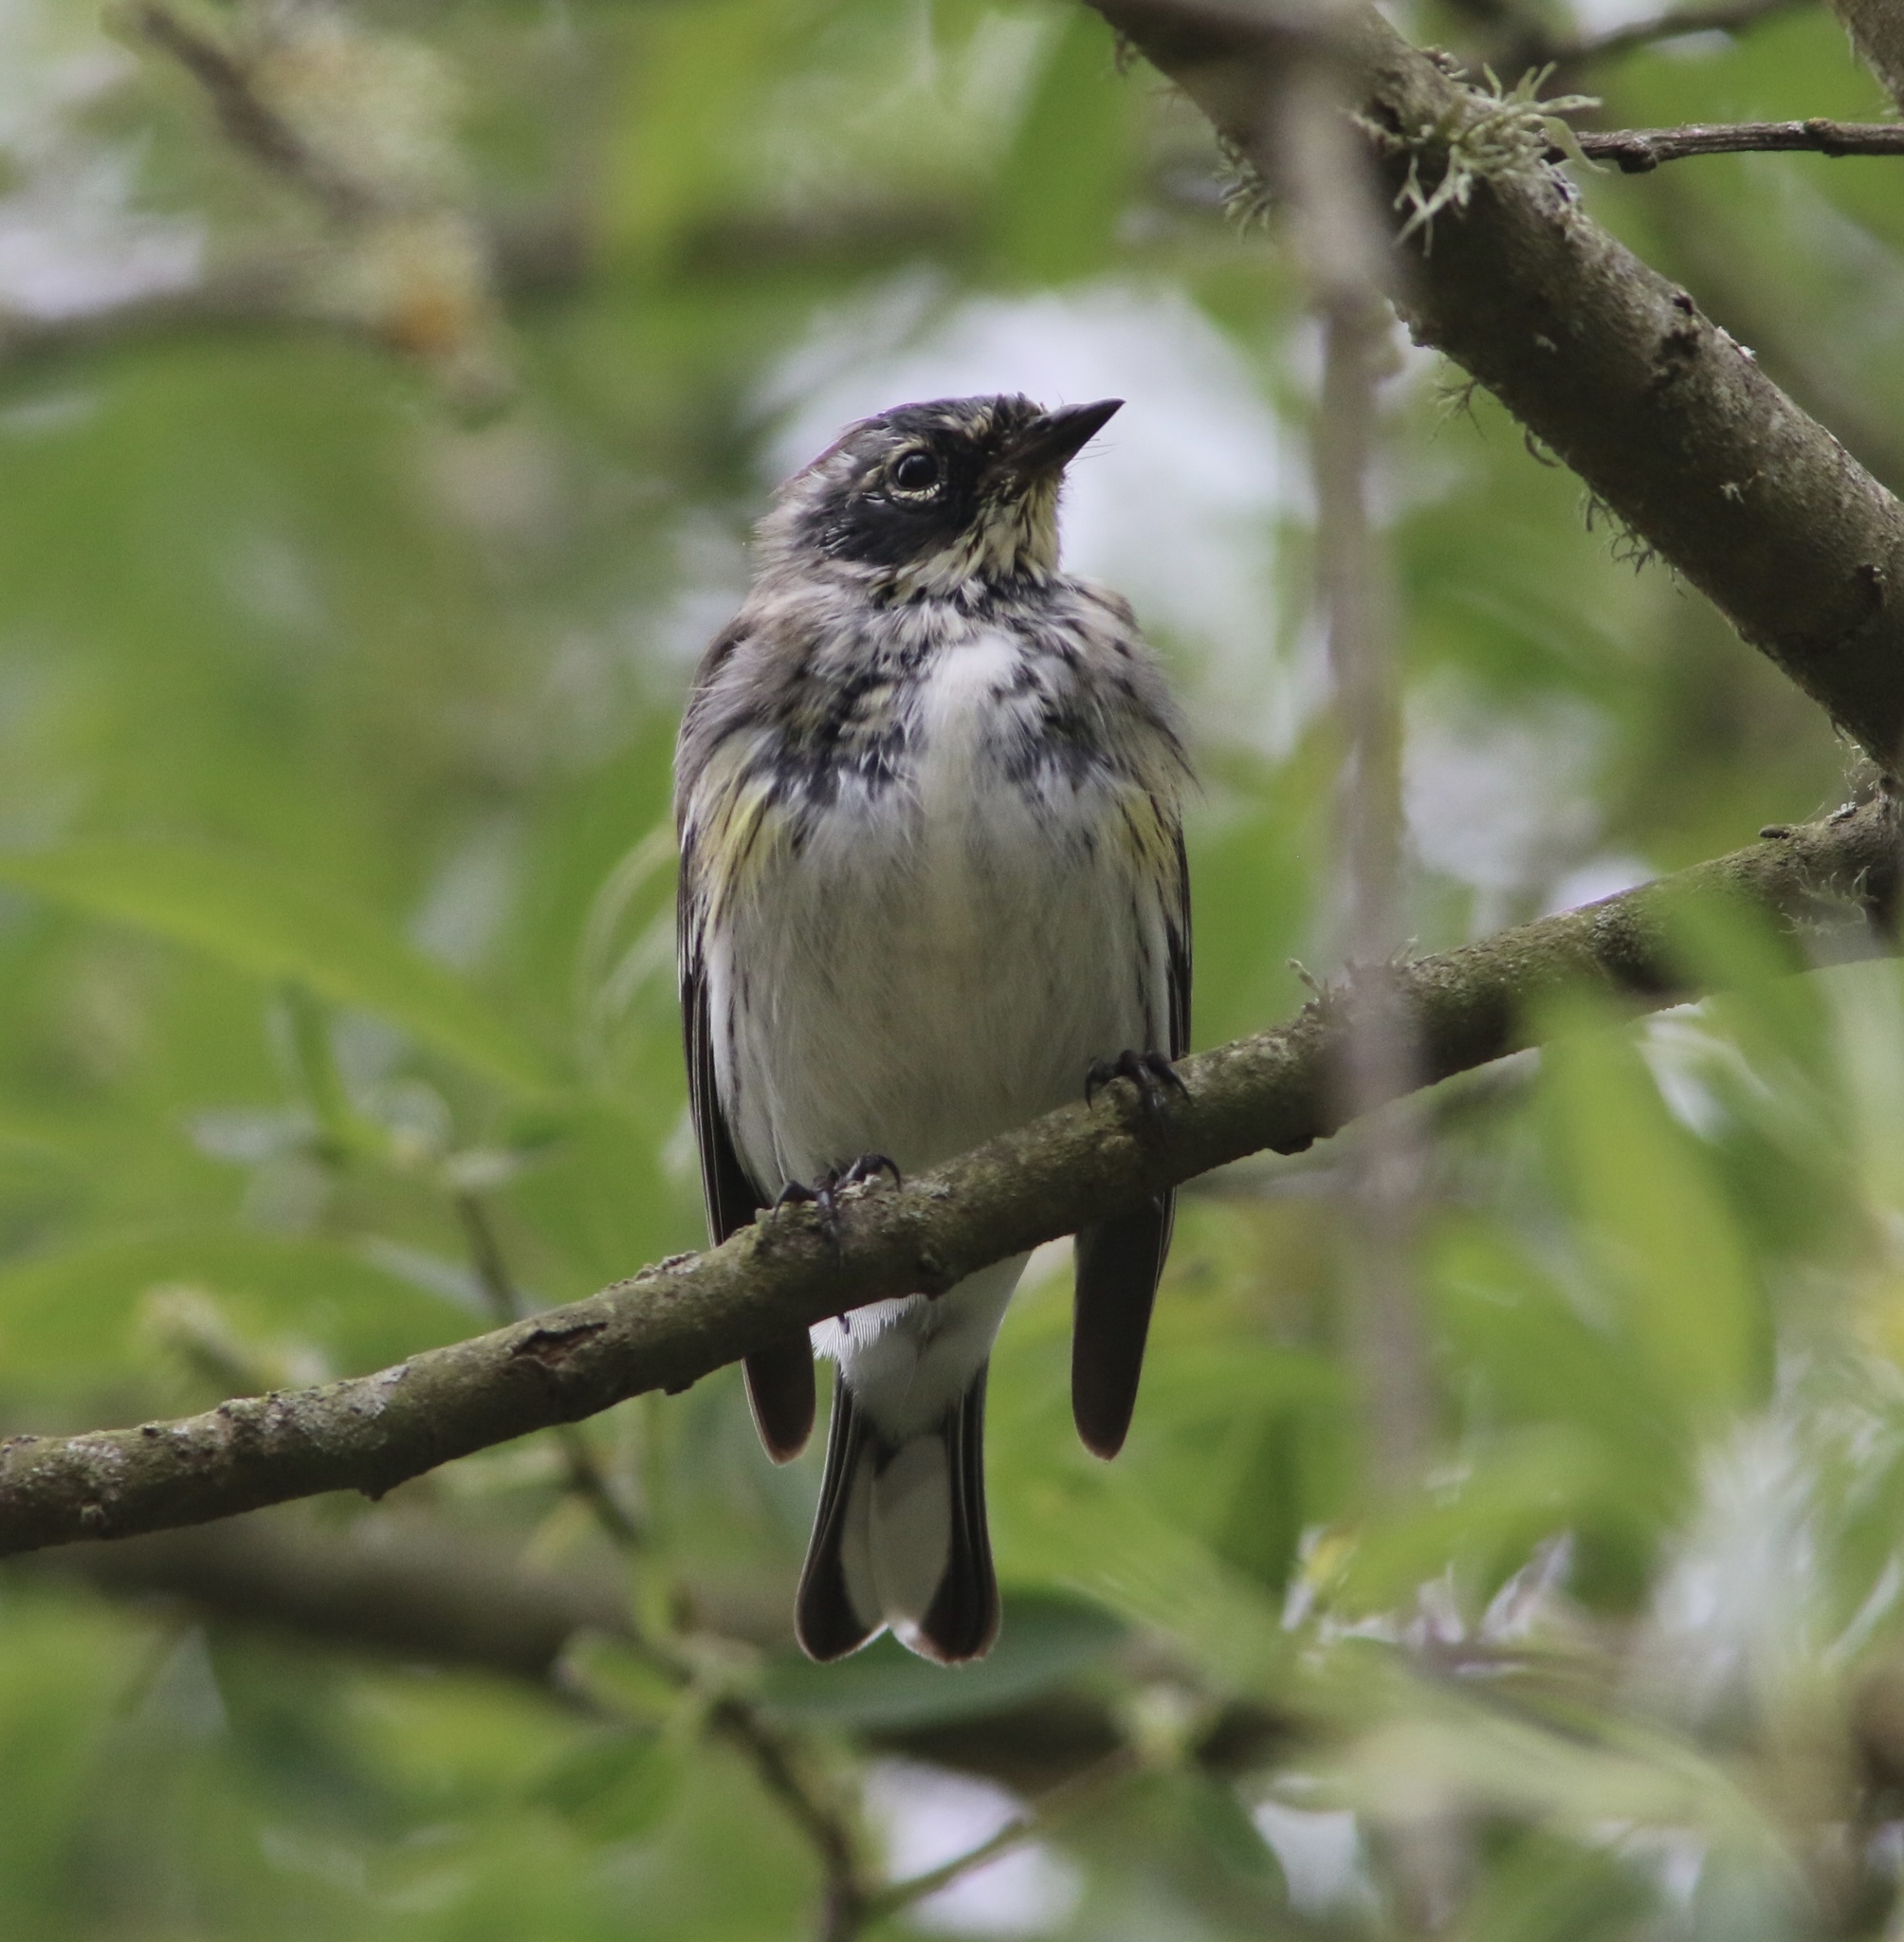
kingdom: Animalia
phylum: Chordata
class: Aves
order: Passeriformes
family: Parulidae
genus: Setophaga
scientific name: Setophaga coronata
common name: Myrtle warbler
